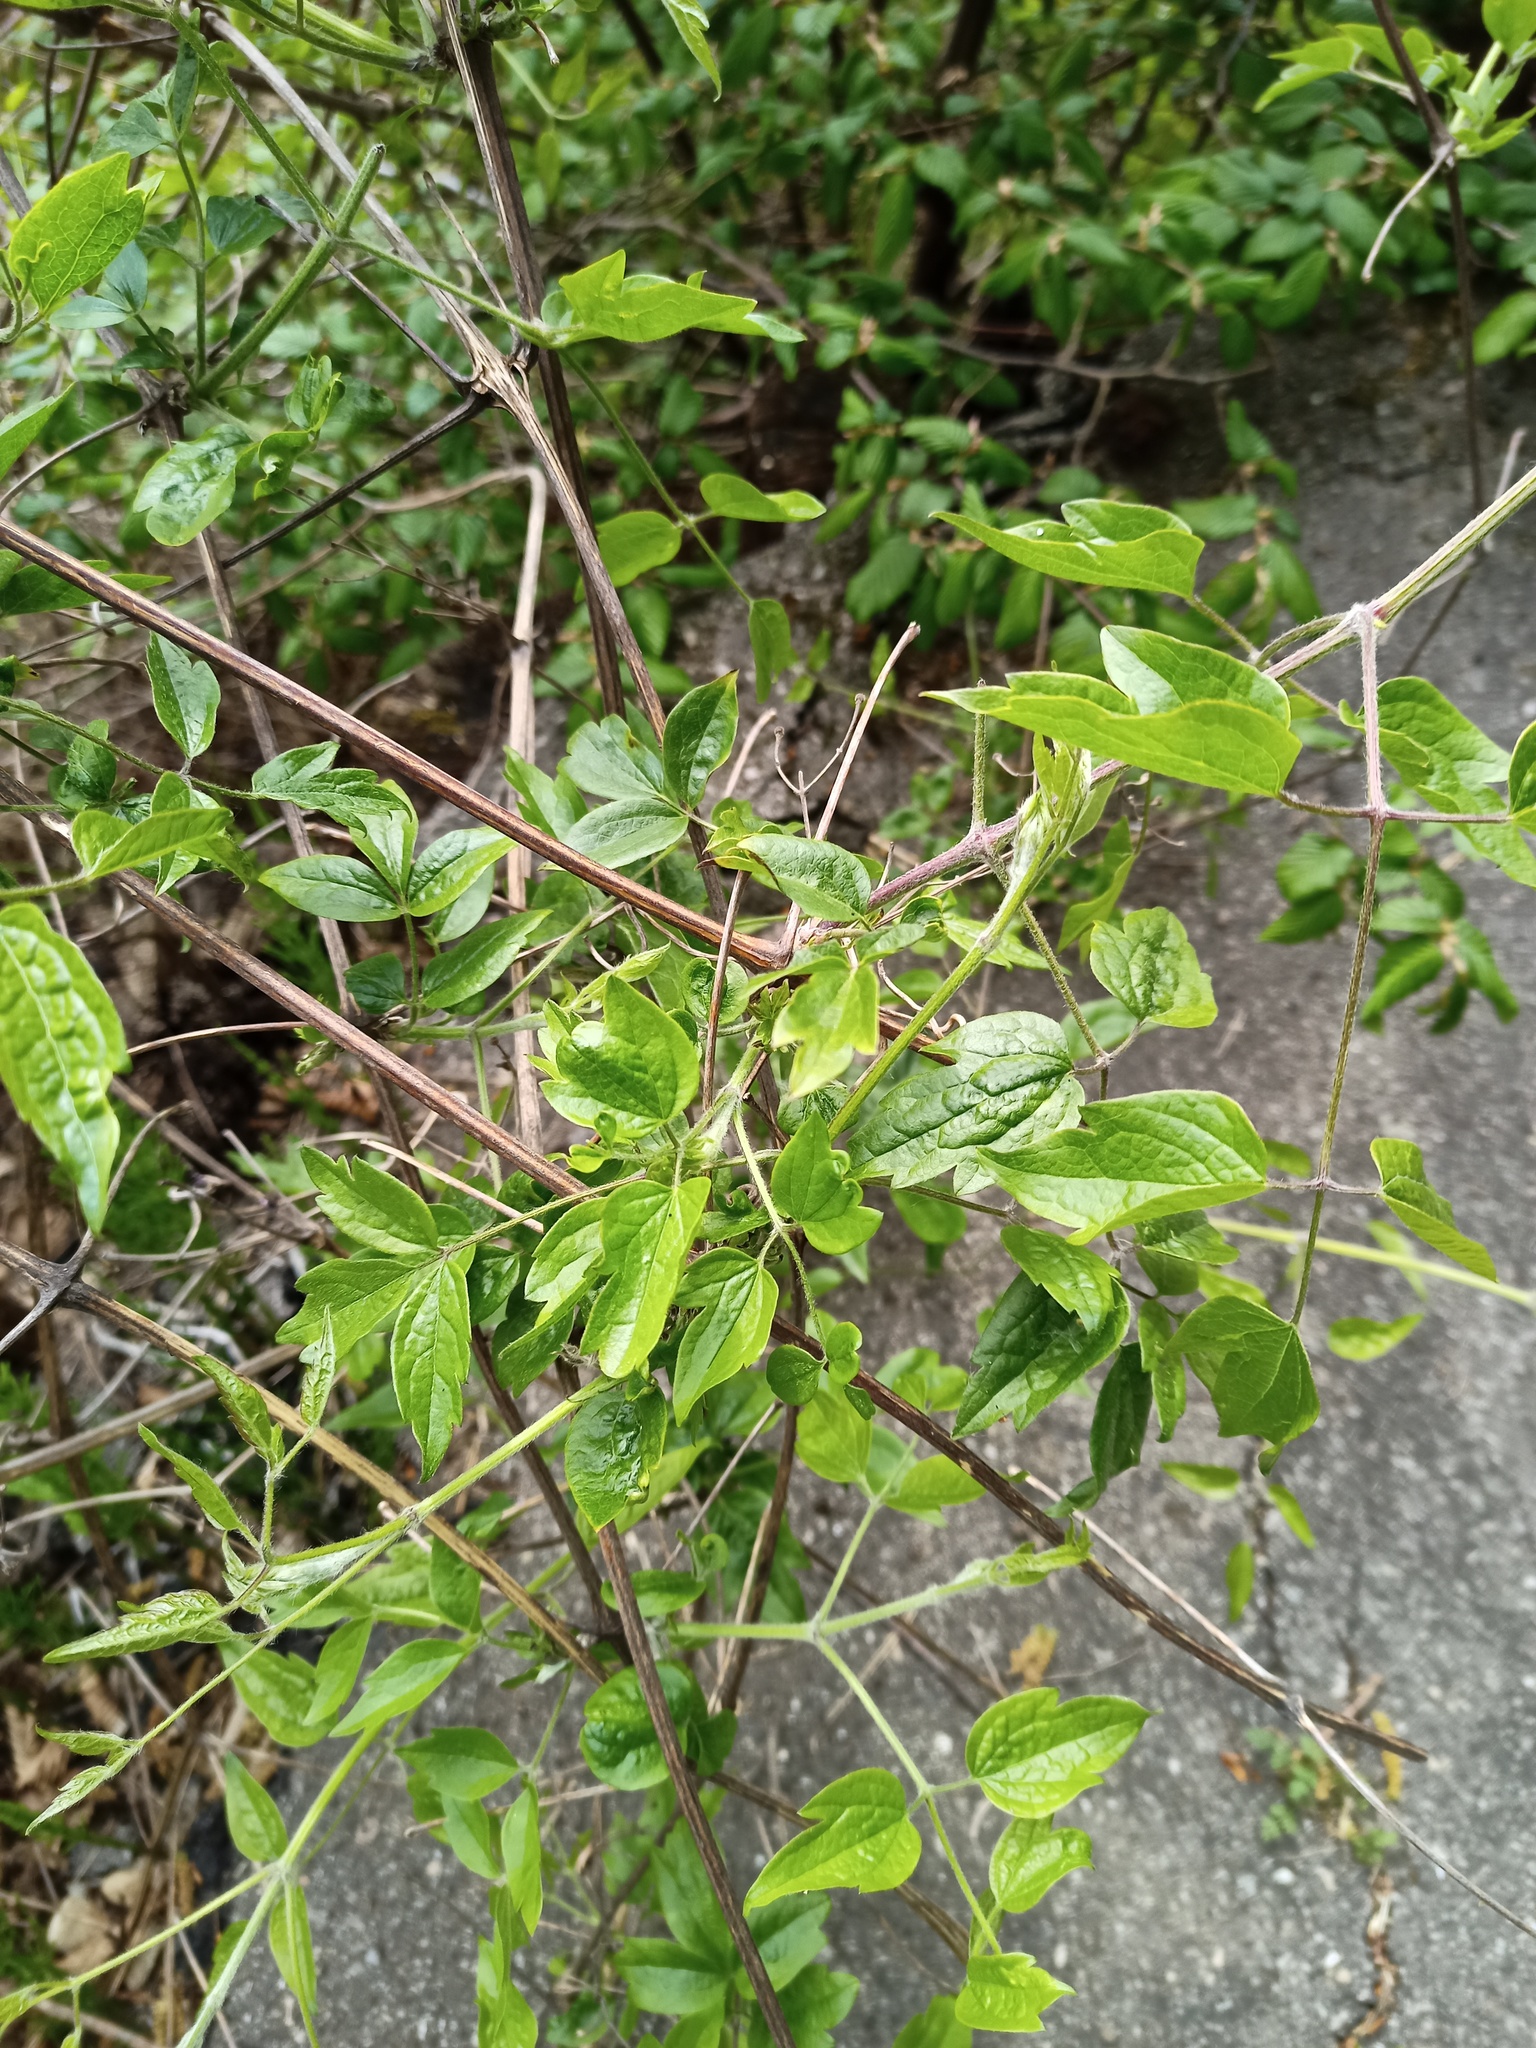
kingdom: Plantae
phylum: Tracheophyta
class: Magnoliopsida
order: Ranunculales
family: Ranunculaceae
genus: Clematis
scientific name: Clematis vitalba
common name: Evergreen clematis
